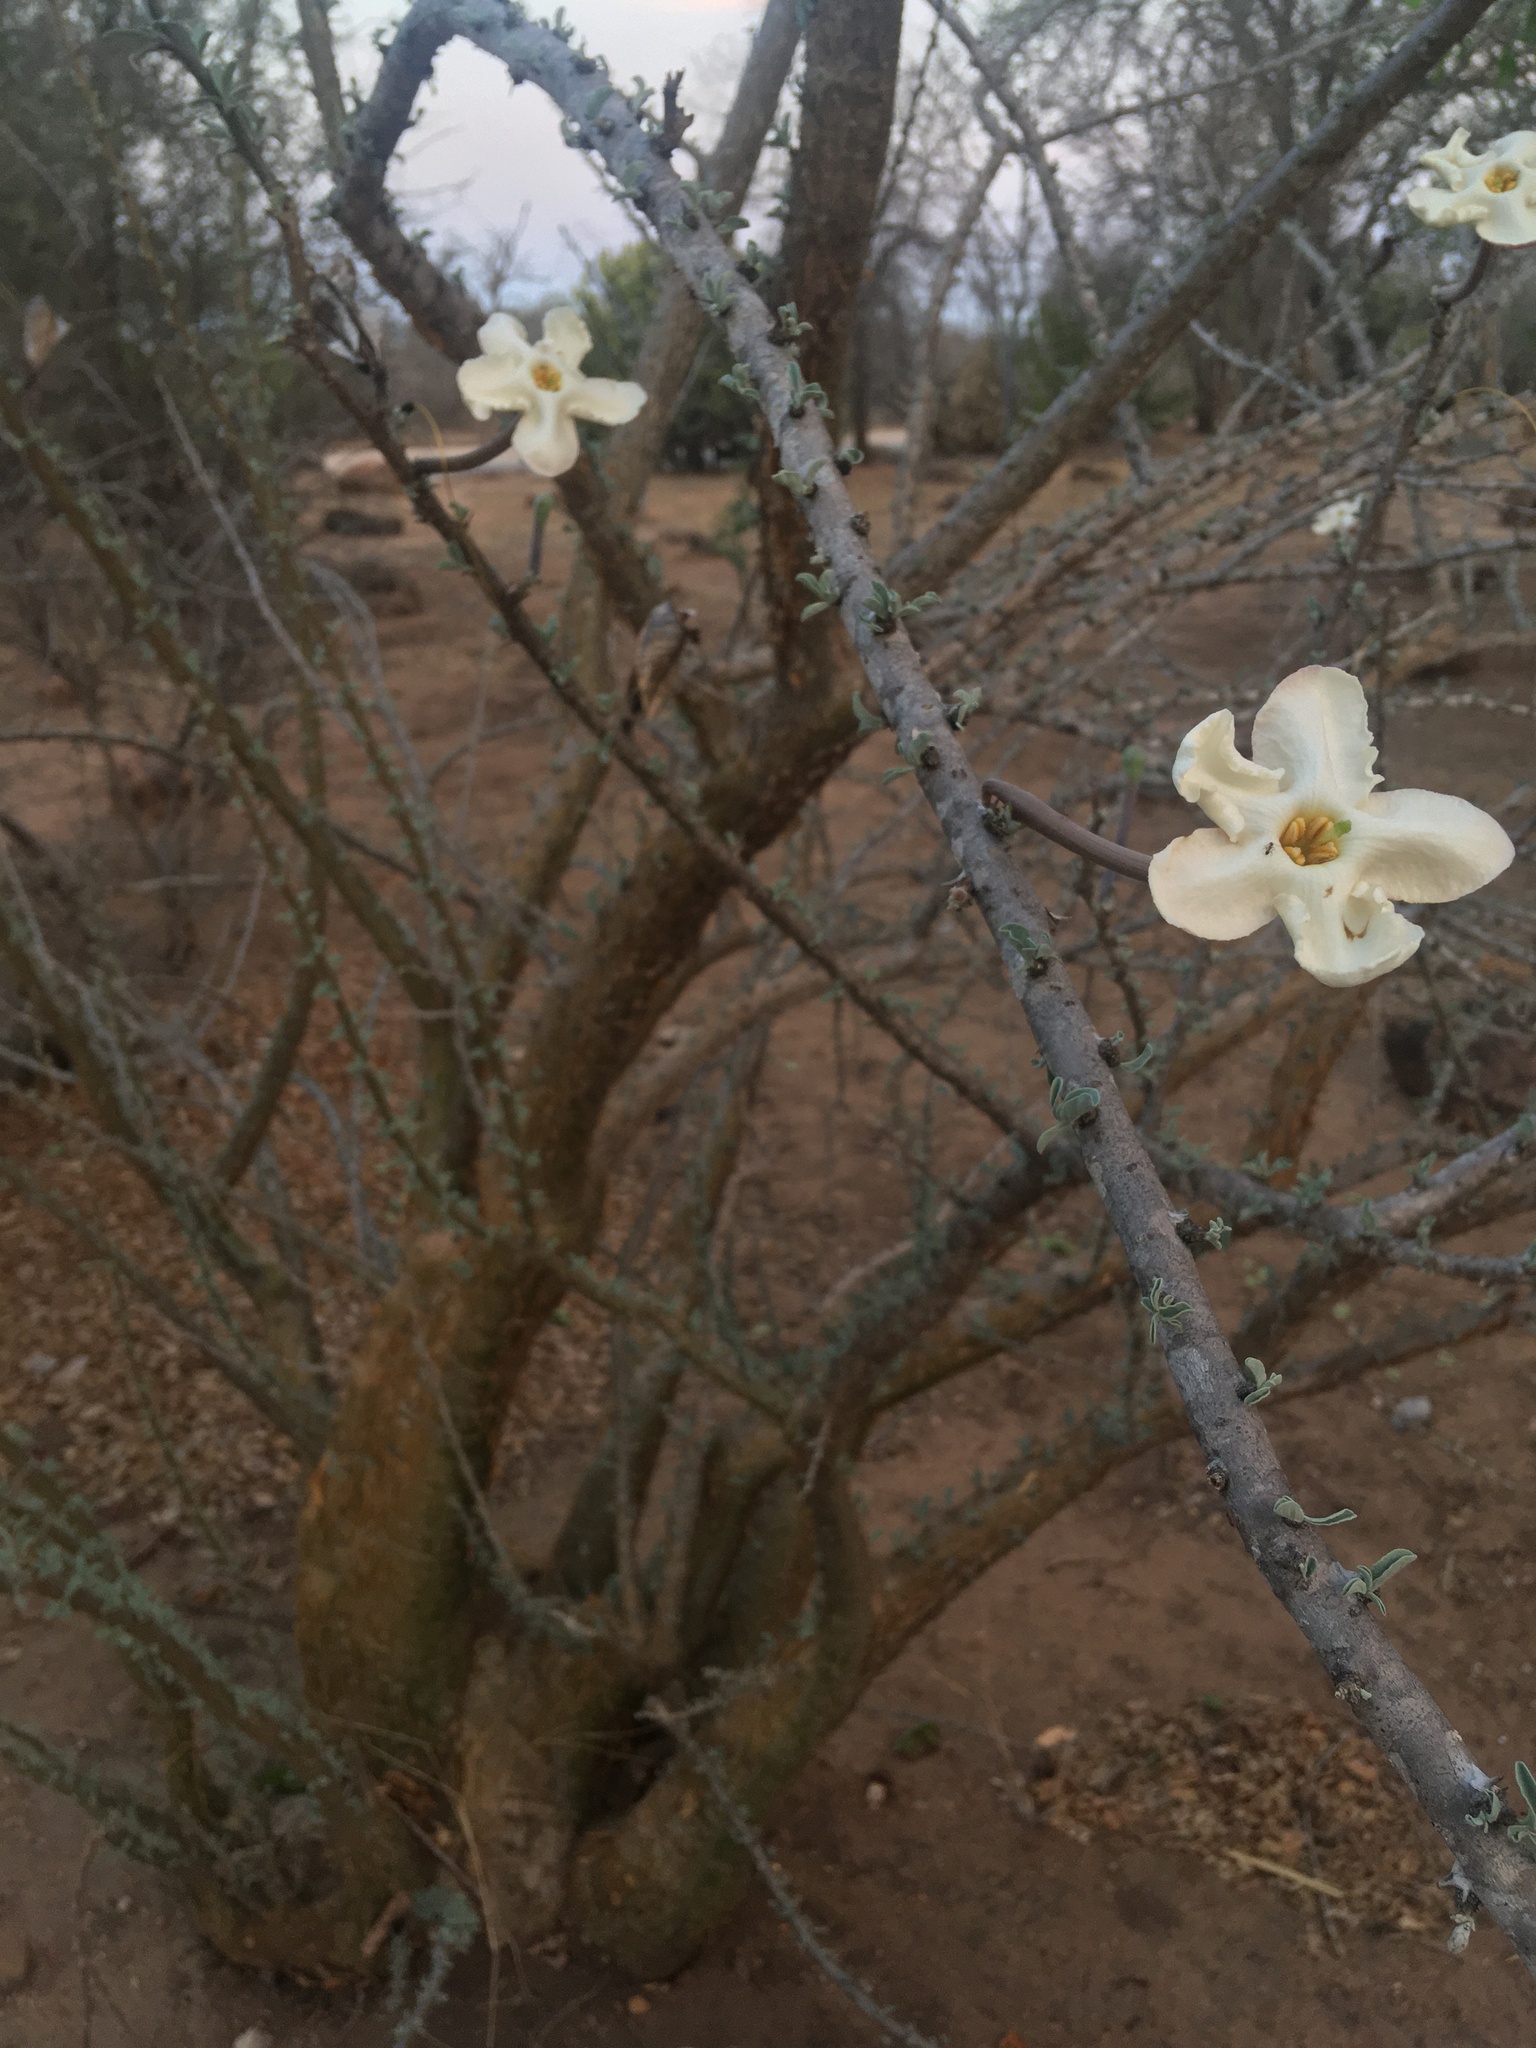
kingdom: Plantae
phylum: Tracheophyta
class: Magnoliopsida
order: Lamiales
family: Pedaliaceae
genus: Sesamothamnus
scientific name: Sesamothamnus lugardii
